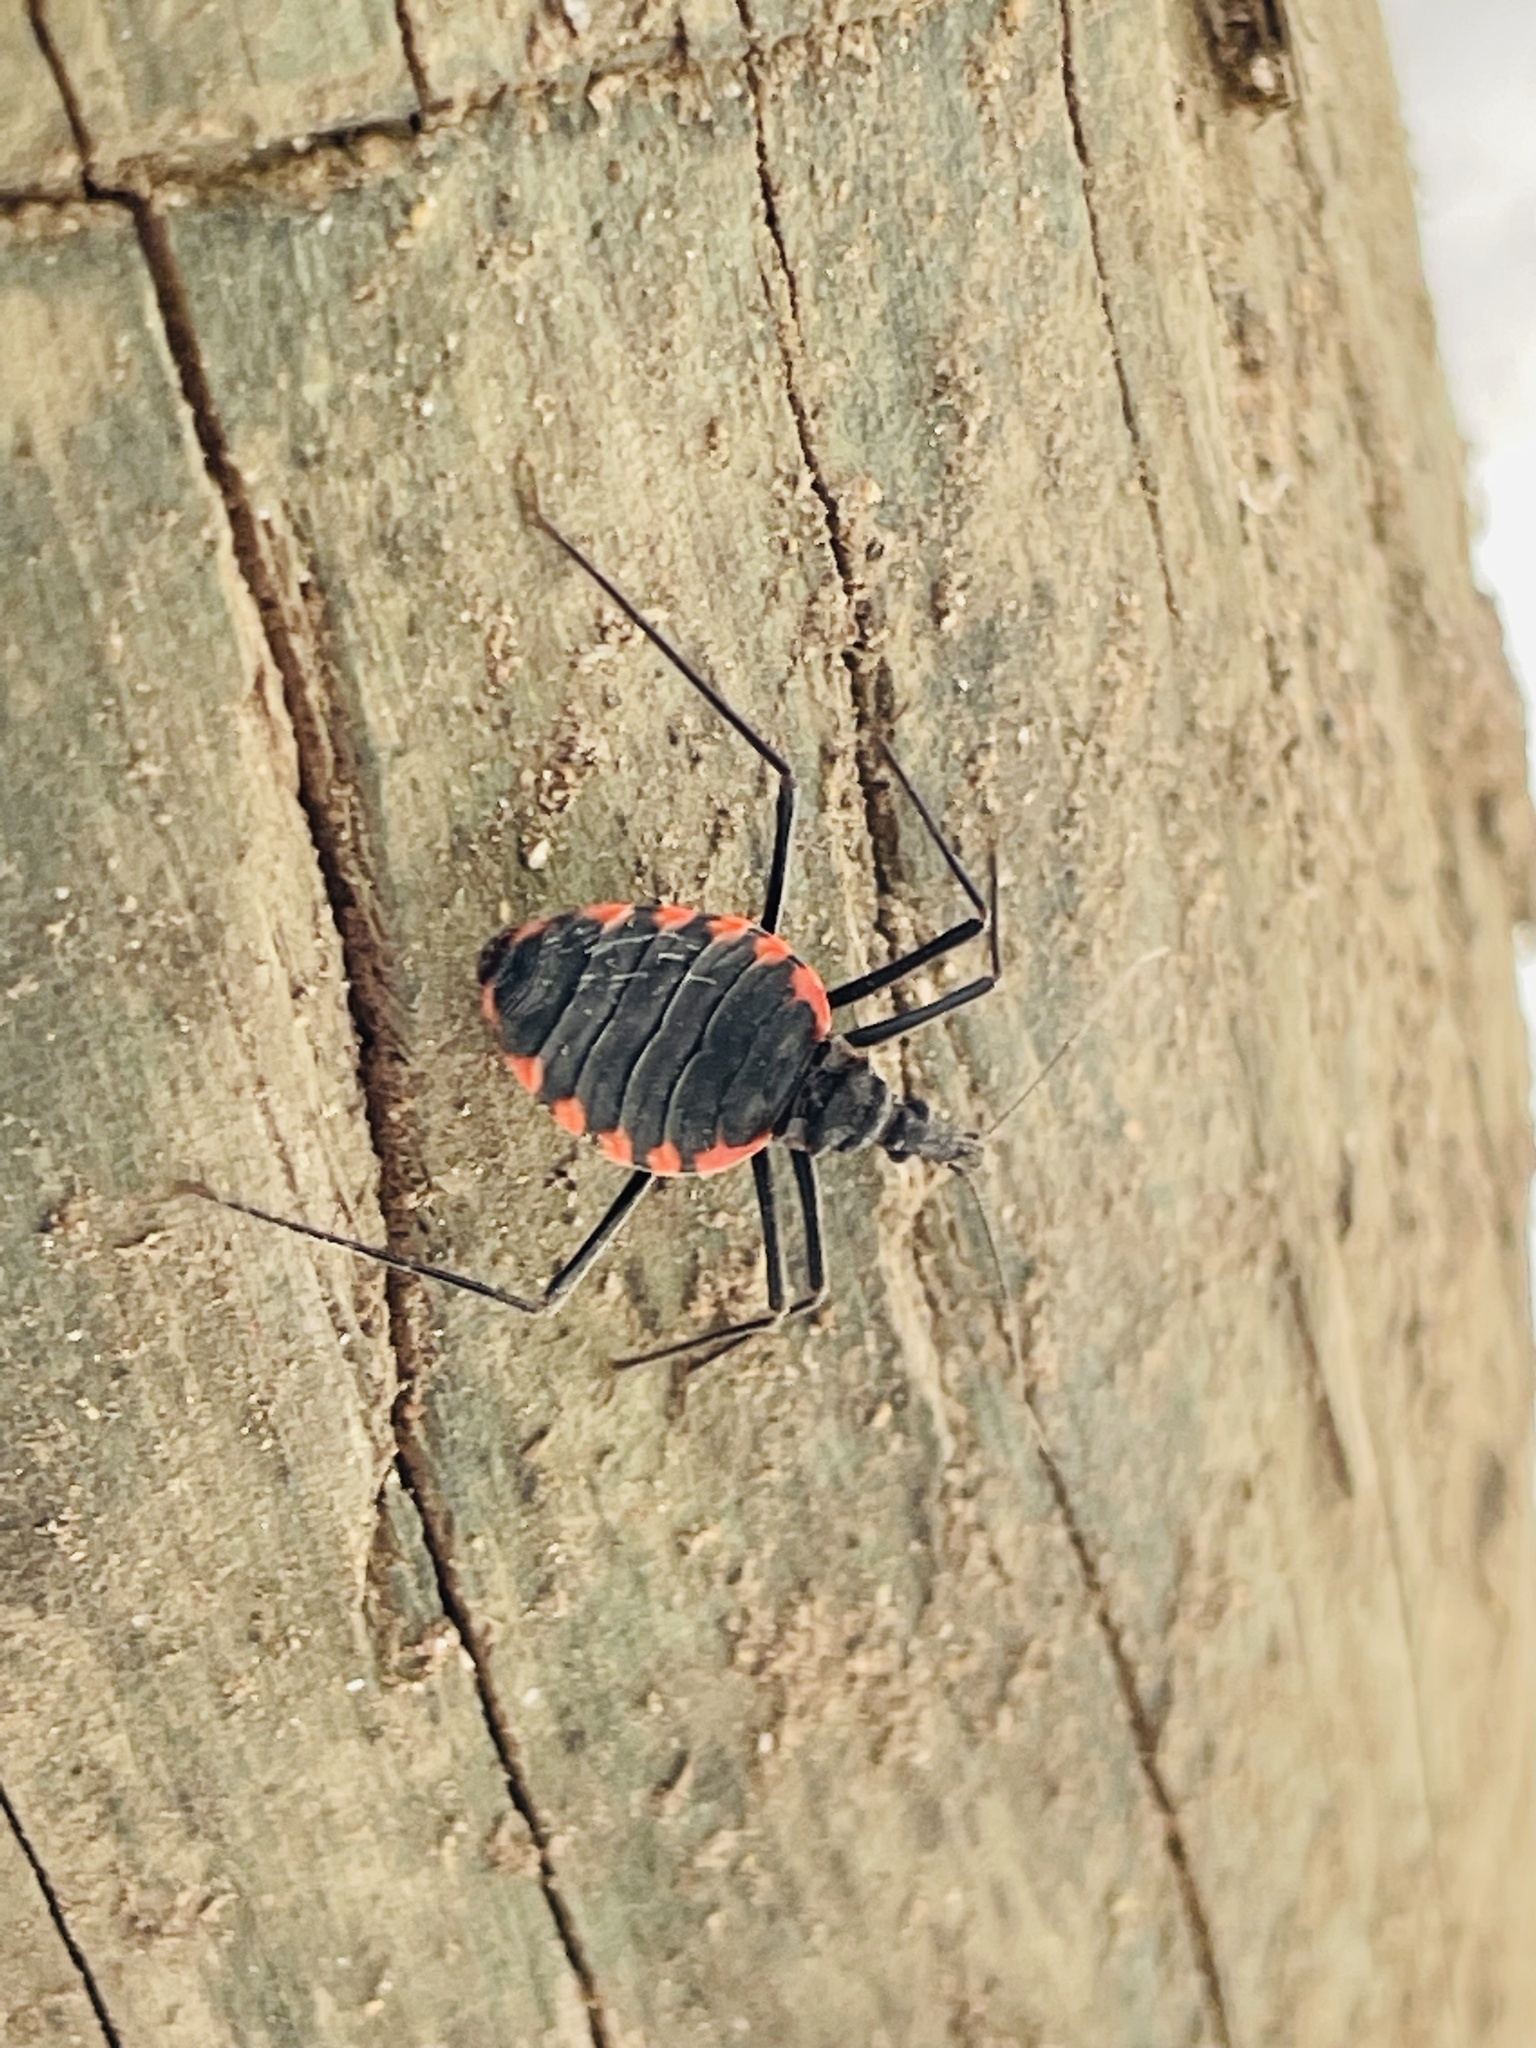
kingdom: Animalia
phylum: Arthropoda
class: Insecta
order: Hemiptera
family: Reduviidae
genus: Mepraia
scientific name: Mepraia spinolai
